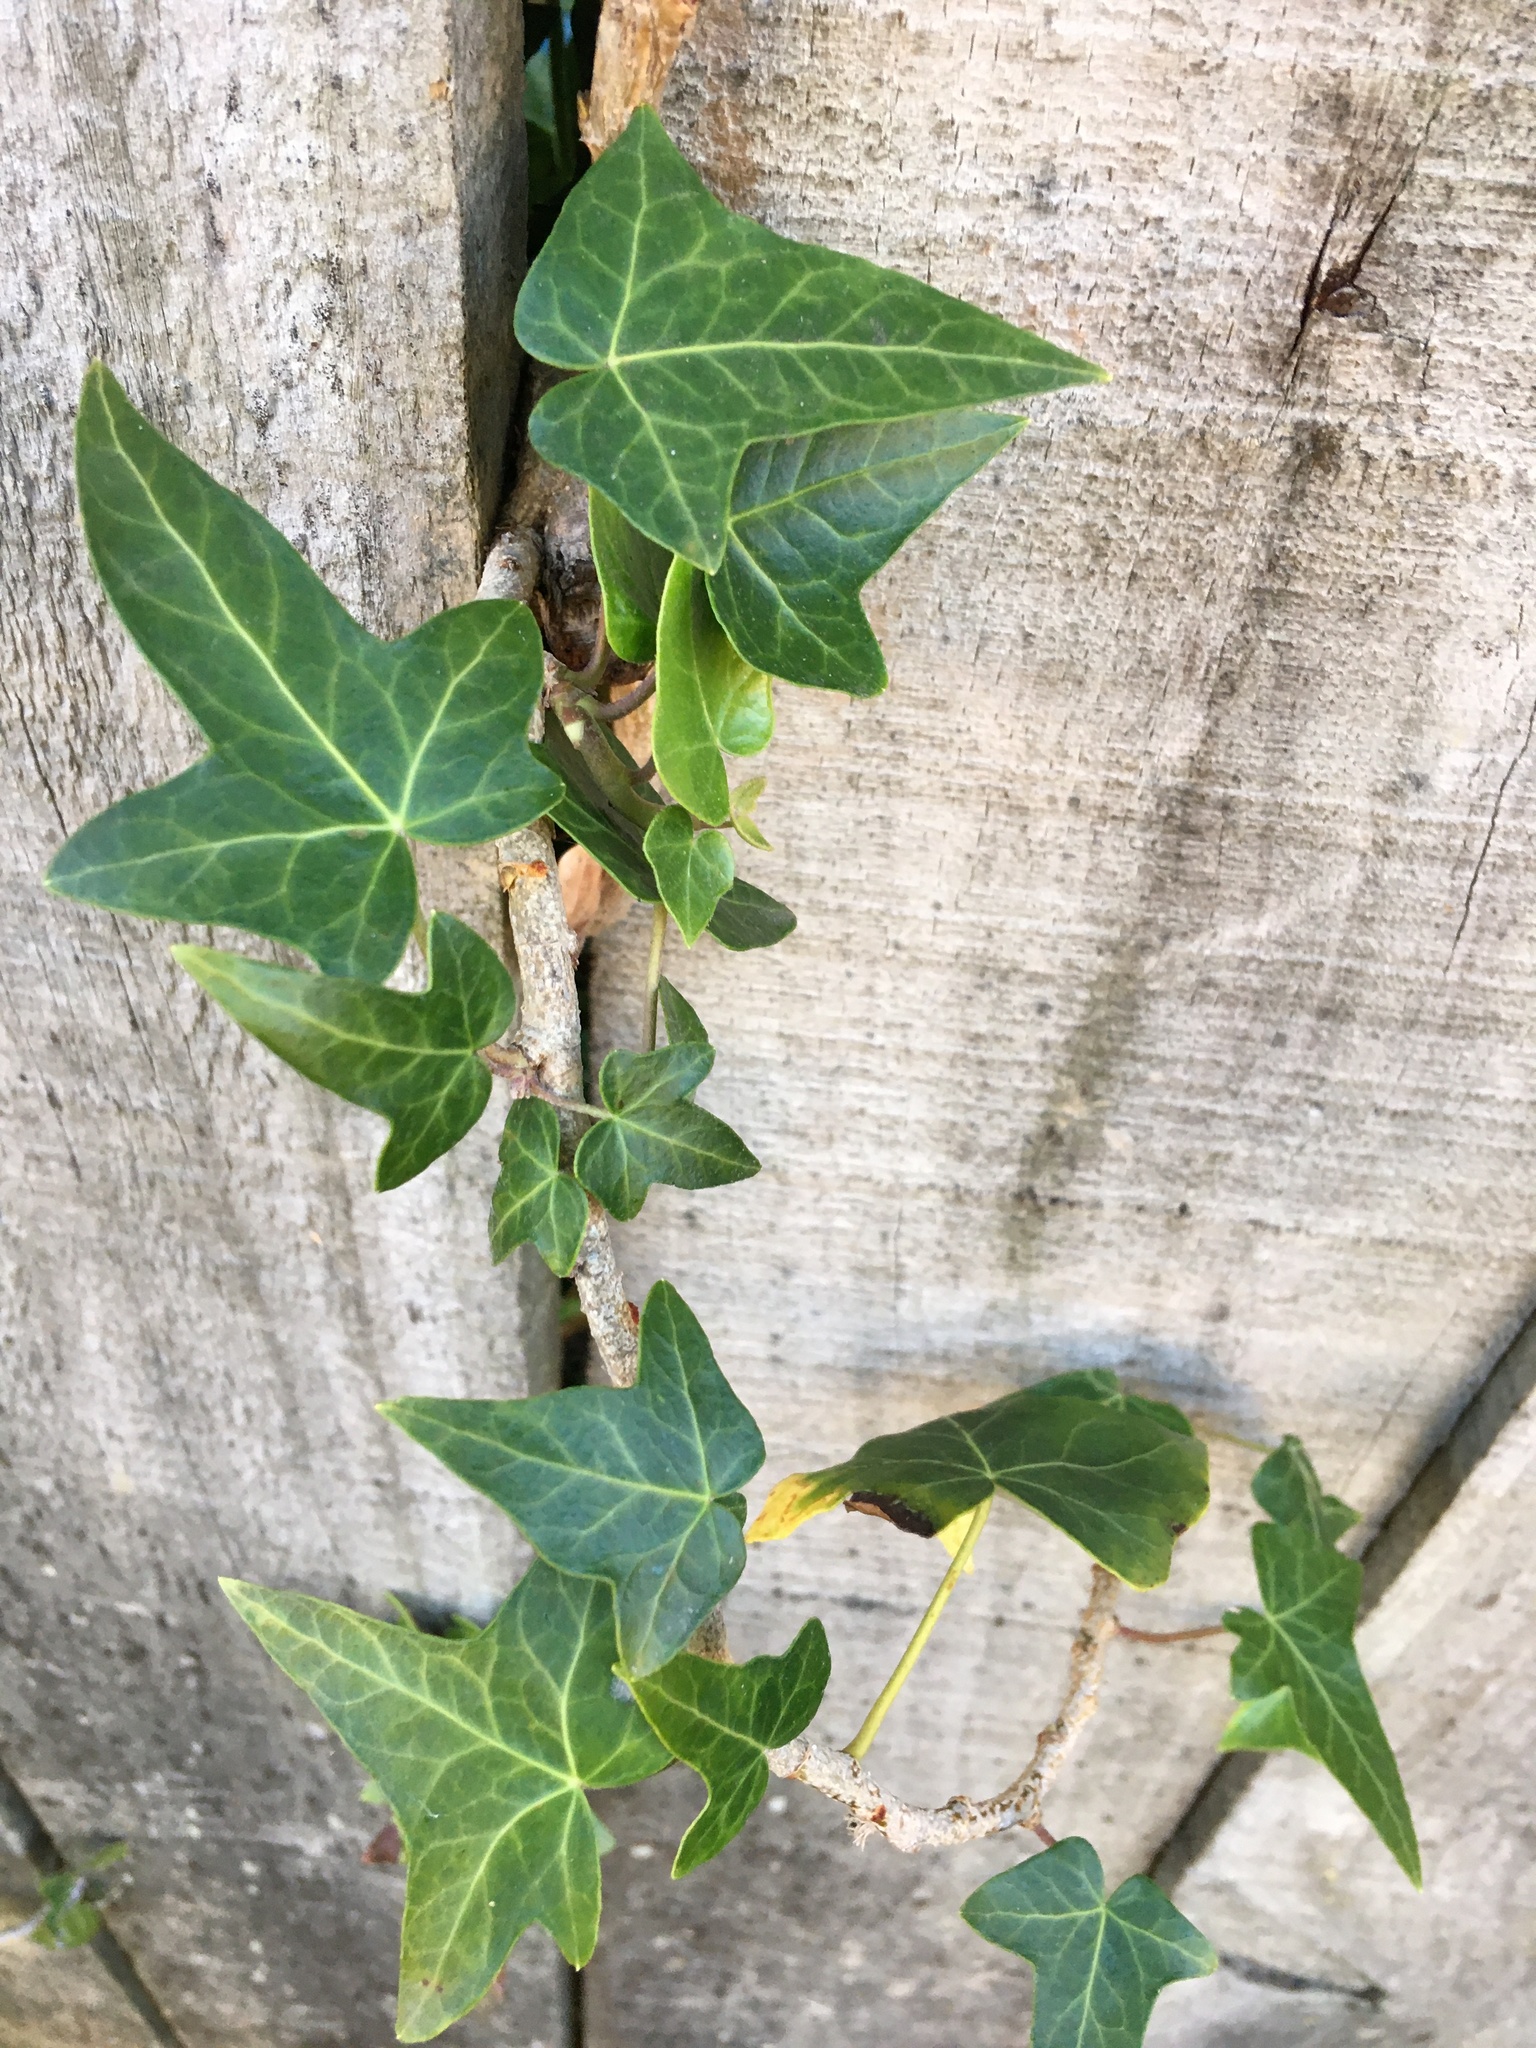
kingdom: Plantae
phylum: Tracheophyta
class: Magnoliopsida
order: Apiales
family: Araliaceae
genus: Hedera
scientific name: Hedera helix
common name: Ivy
